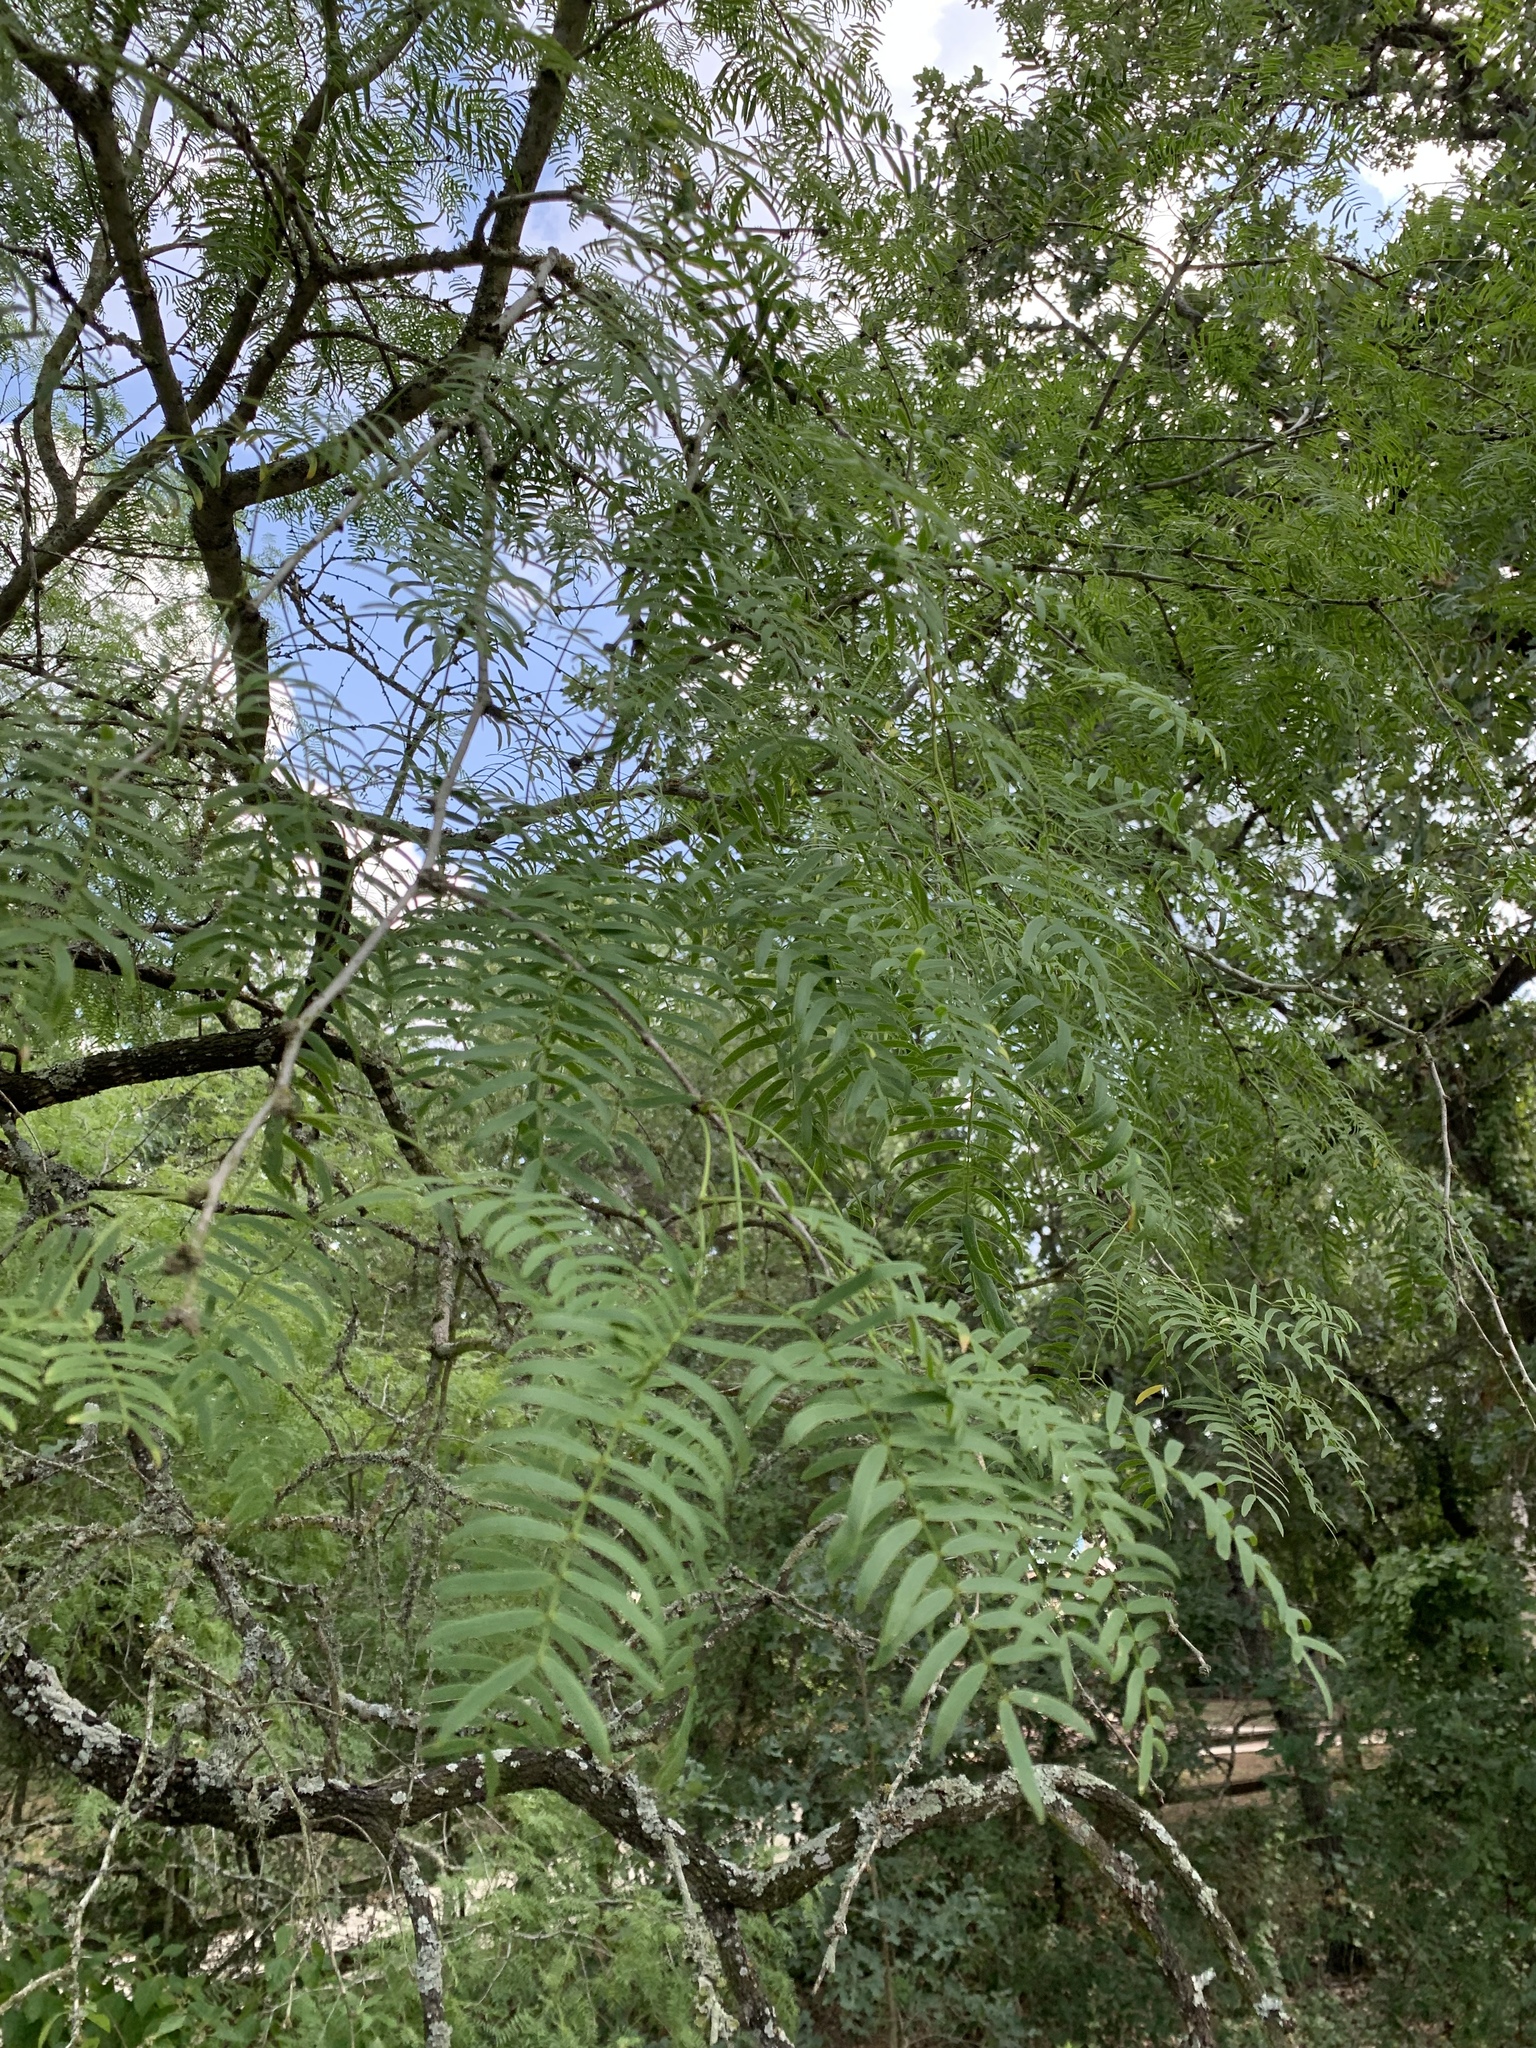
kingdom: Plantae
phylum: Tracheophyta
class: Magnoliopsida
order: Fabales
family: Fabaceae
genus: Prosopis
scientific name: Prosopis glandulosa
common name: Honey mesquite
